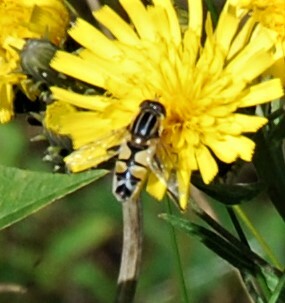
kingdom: Animalia
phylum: Arthropoda
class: Insecta
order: Diptera
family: Syrphidae
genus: Helophilus
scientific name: Helophilus trivittatus
